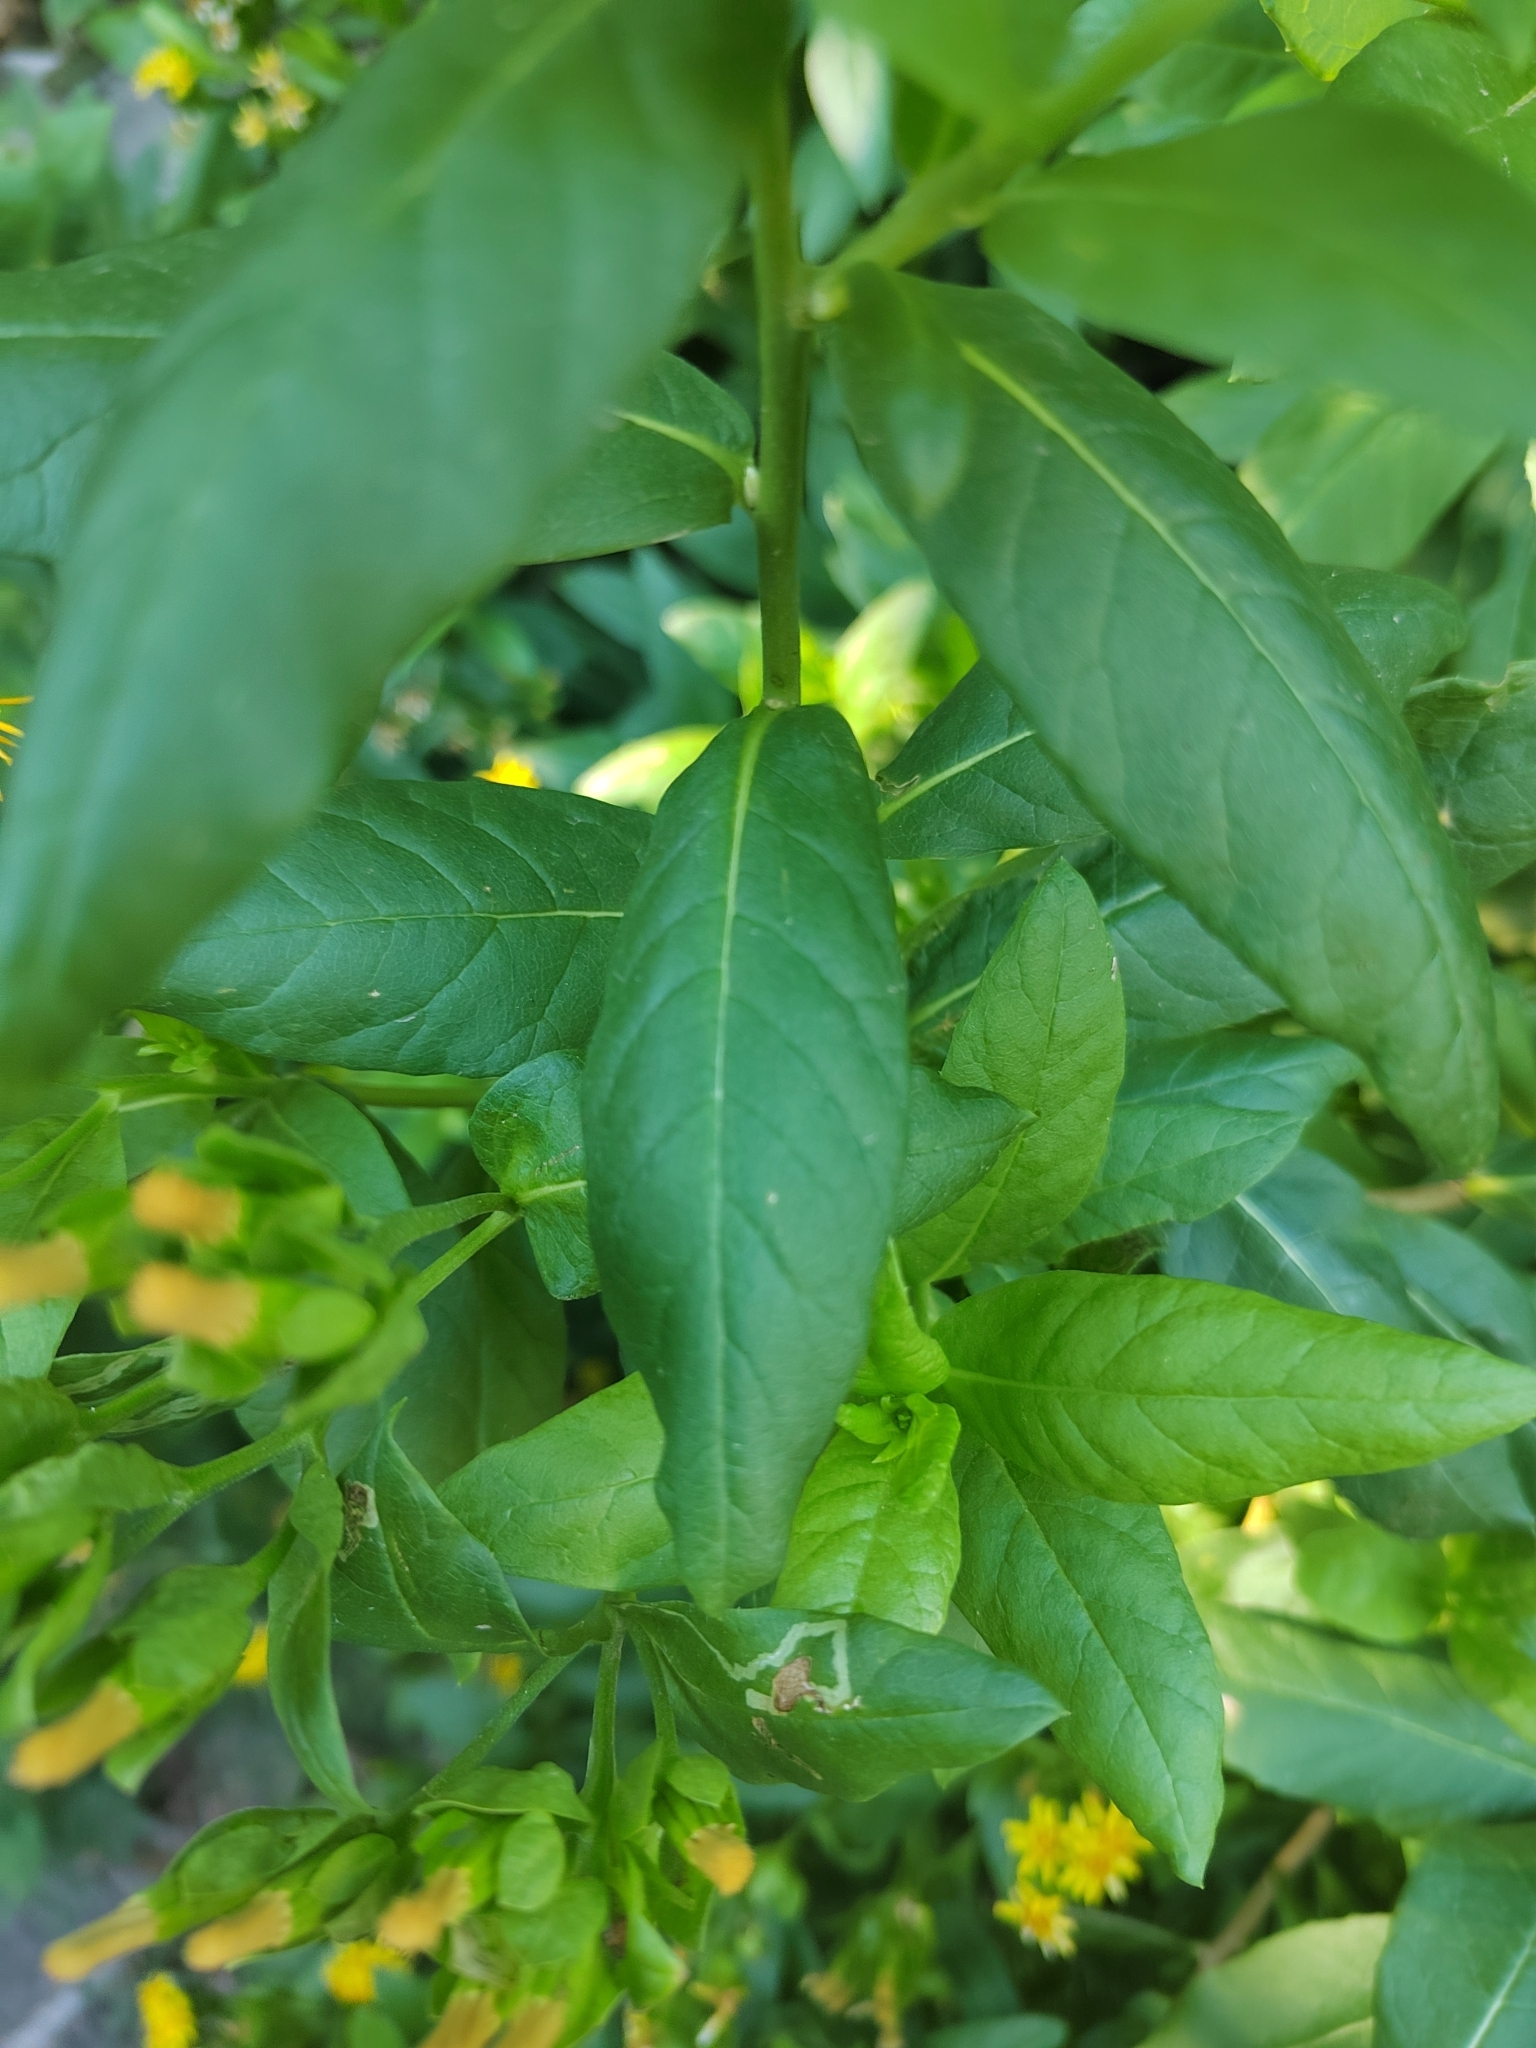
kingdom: Plantae
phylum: Tracheophyta
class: Magnoliopsida
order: Asterales
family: Asteraceae
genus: Trixis
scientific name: Trixis pterocaulis
